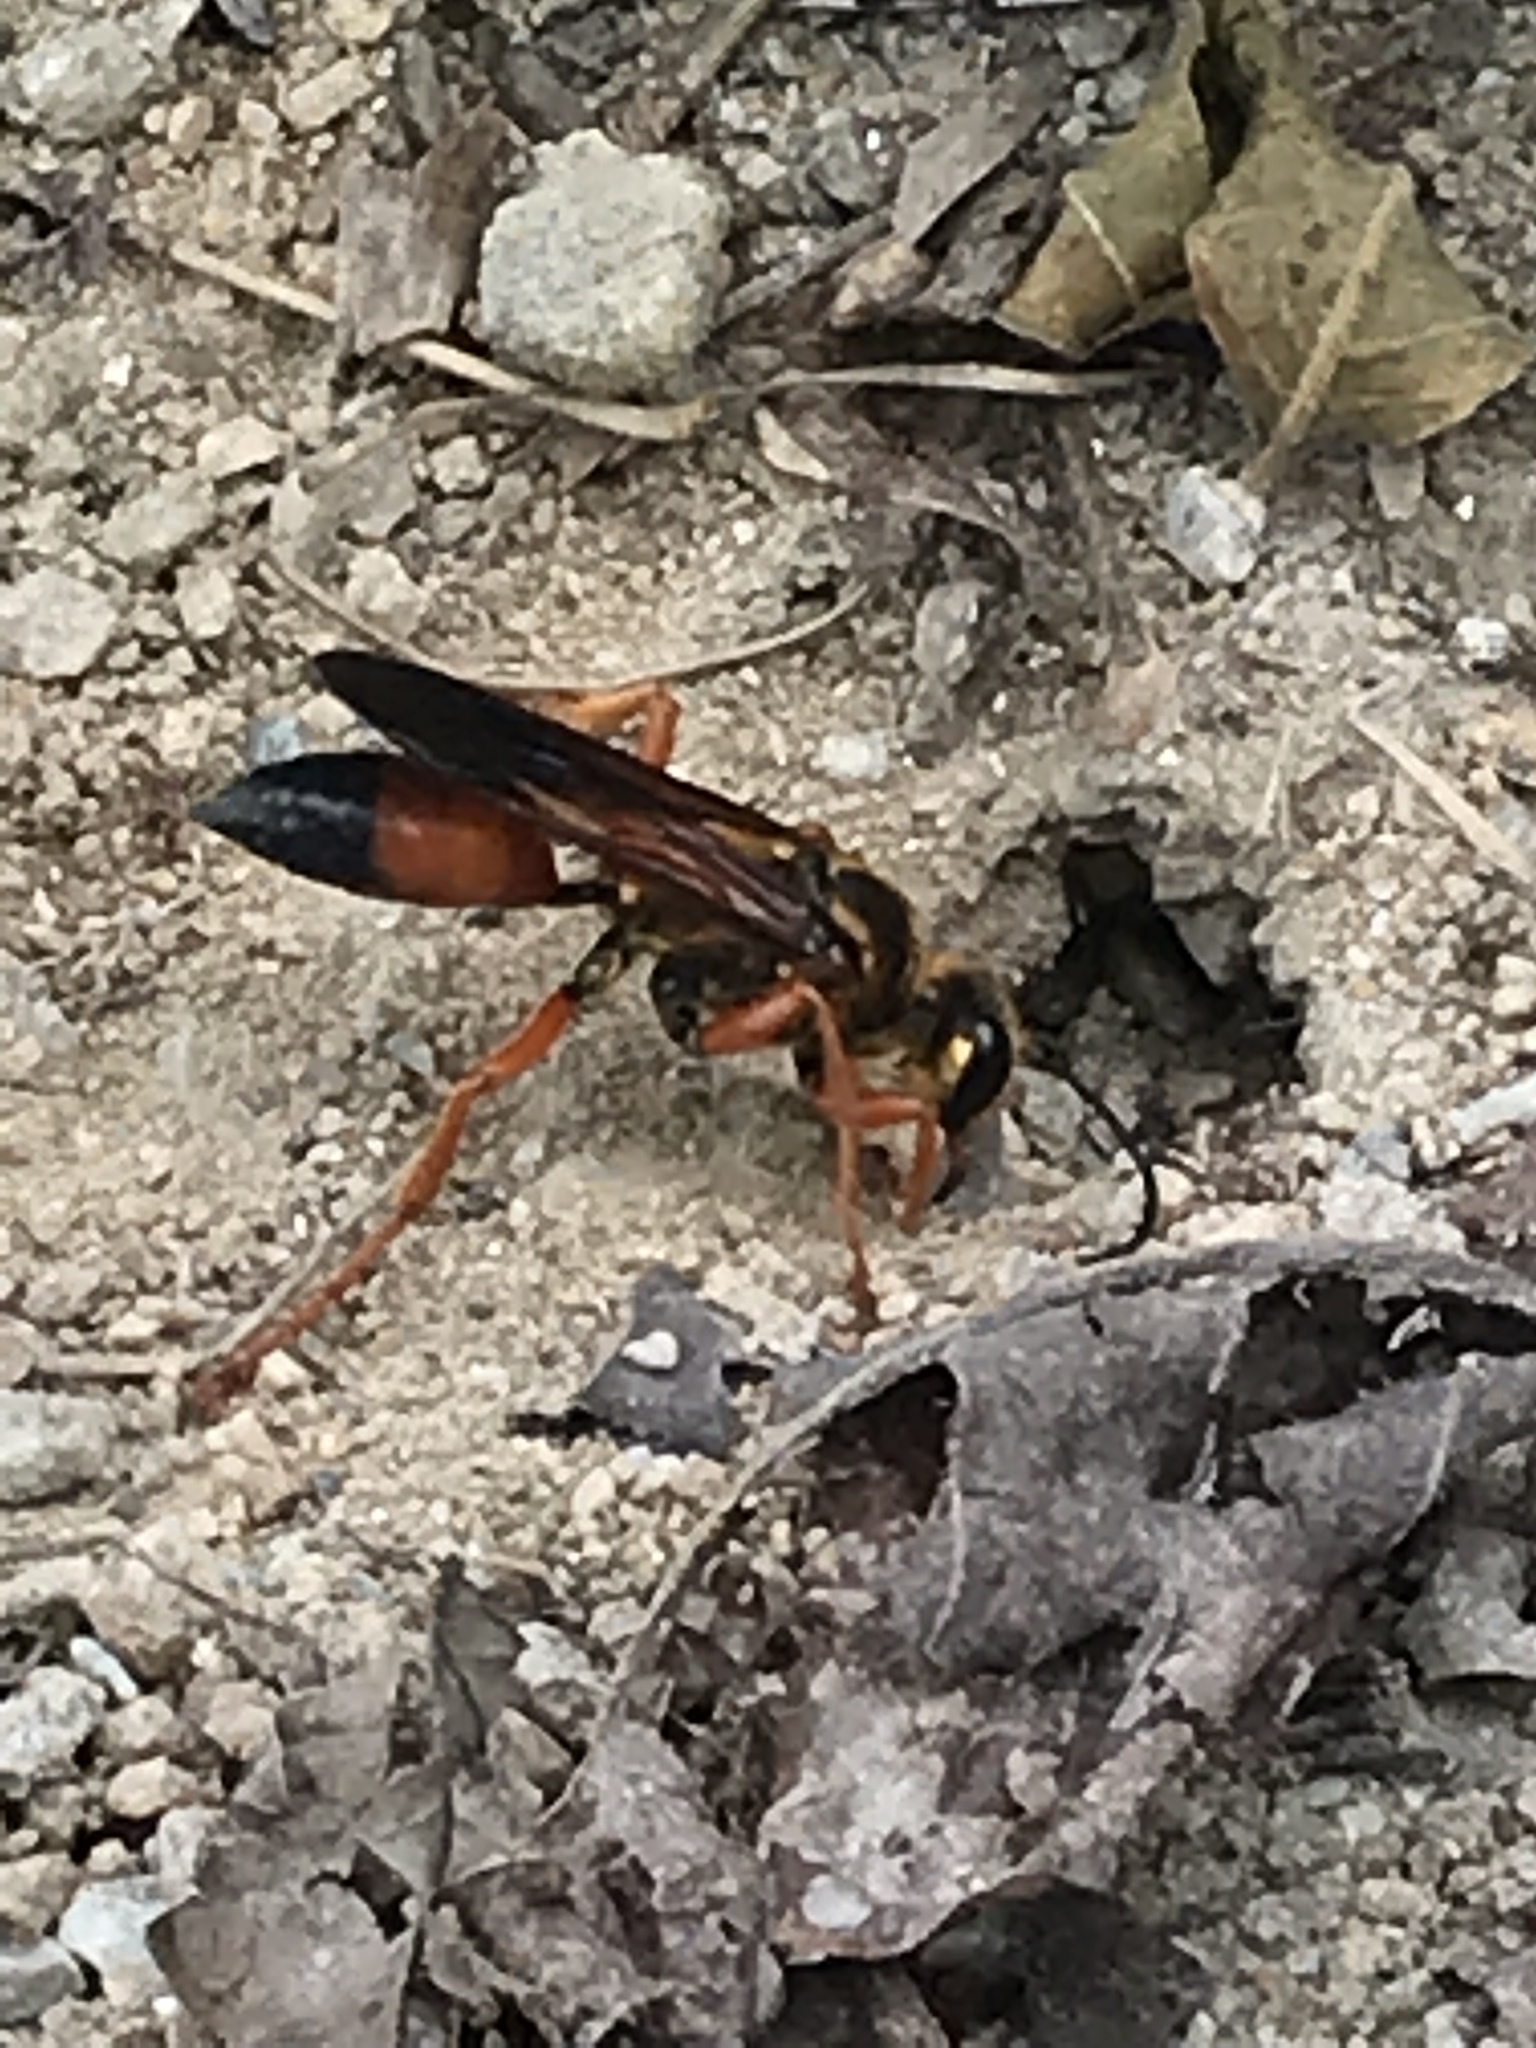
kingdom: Animalia
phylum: Arthropoda
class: Insecta
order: Hymenoptera
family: Sphecidae
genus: Sphex
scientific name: Sphex ichneumoneus
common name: Great golden digger wasp
